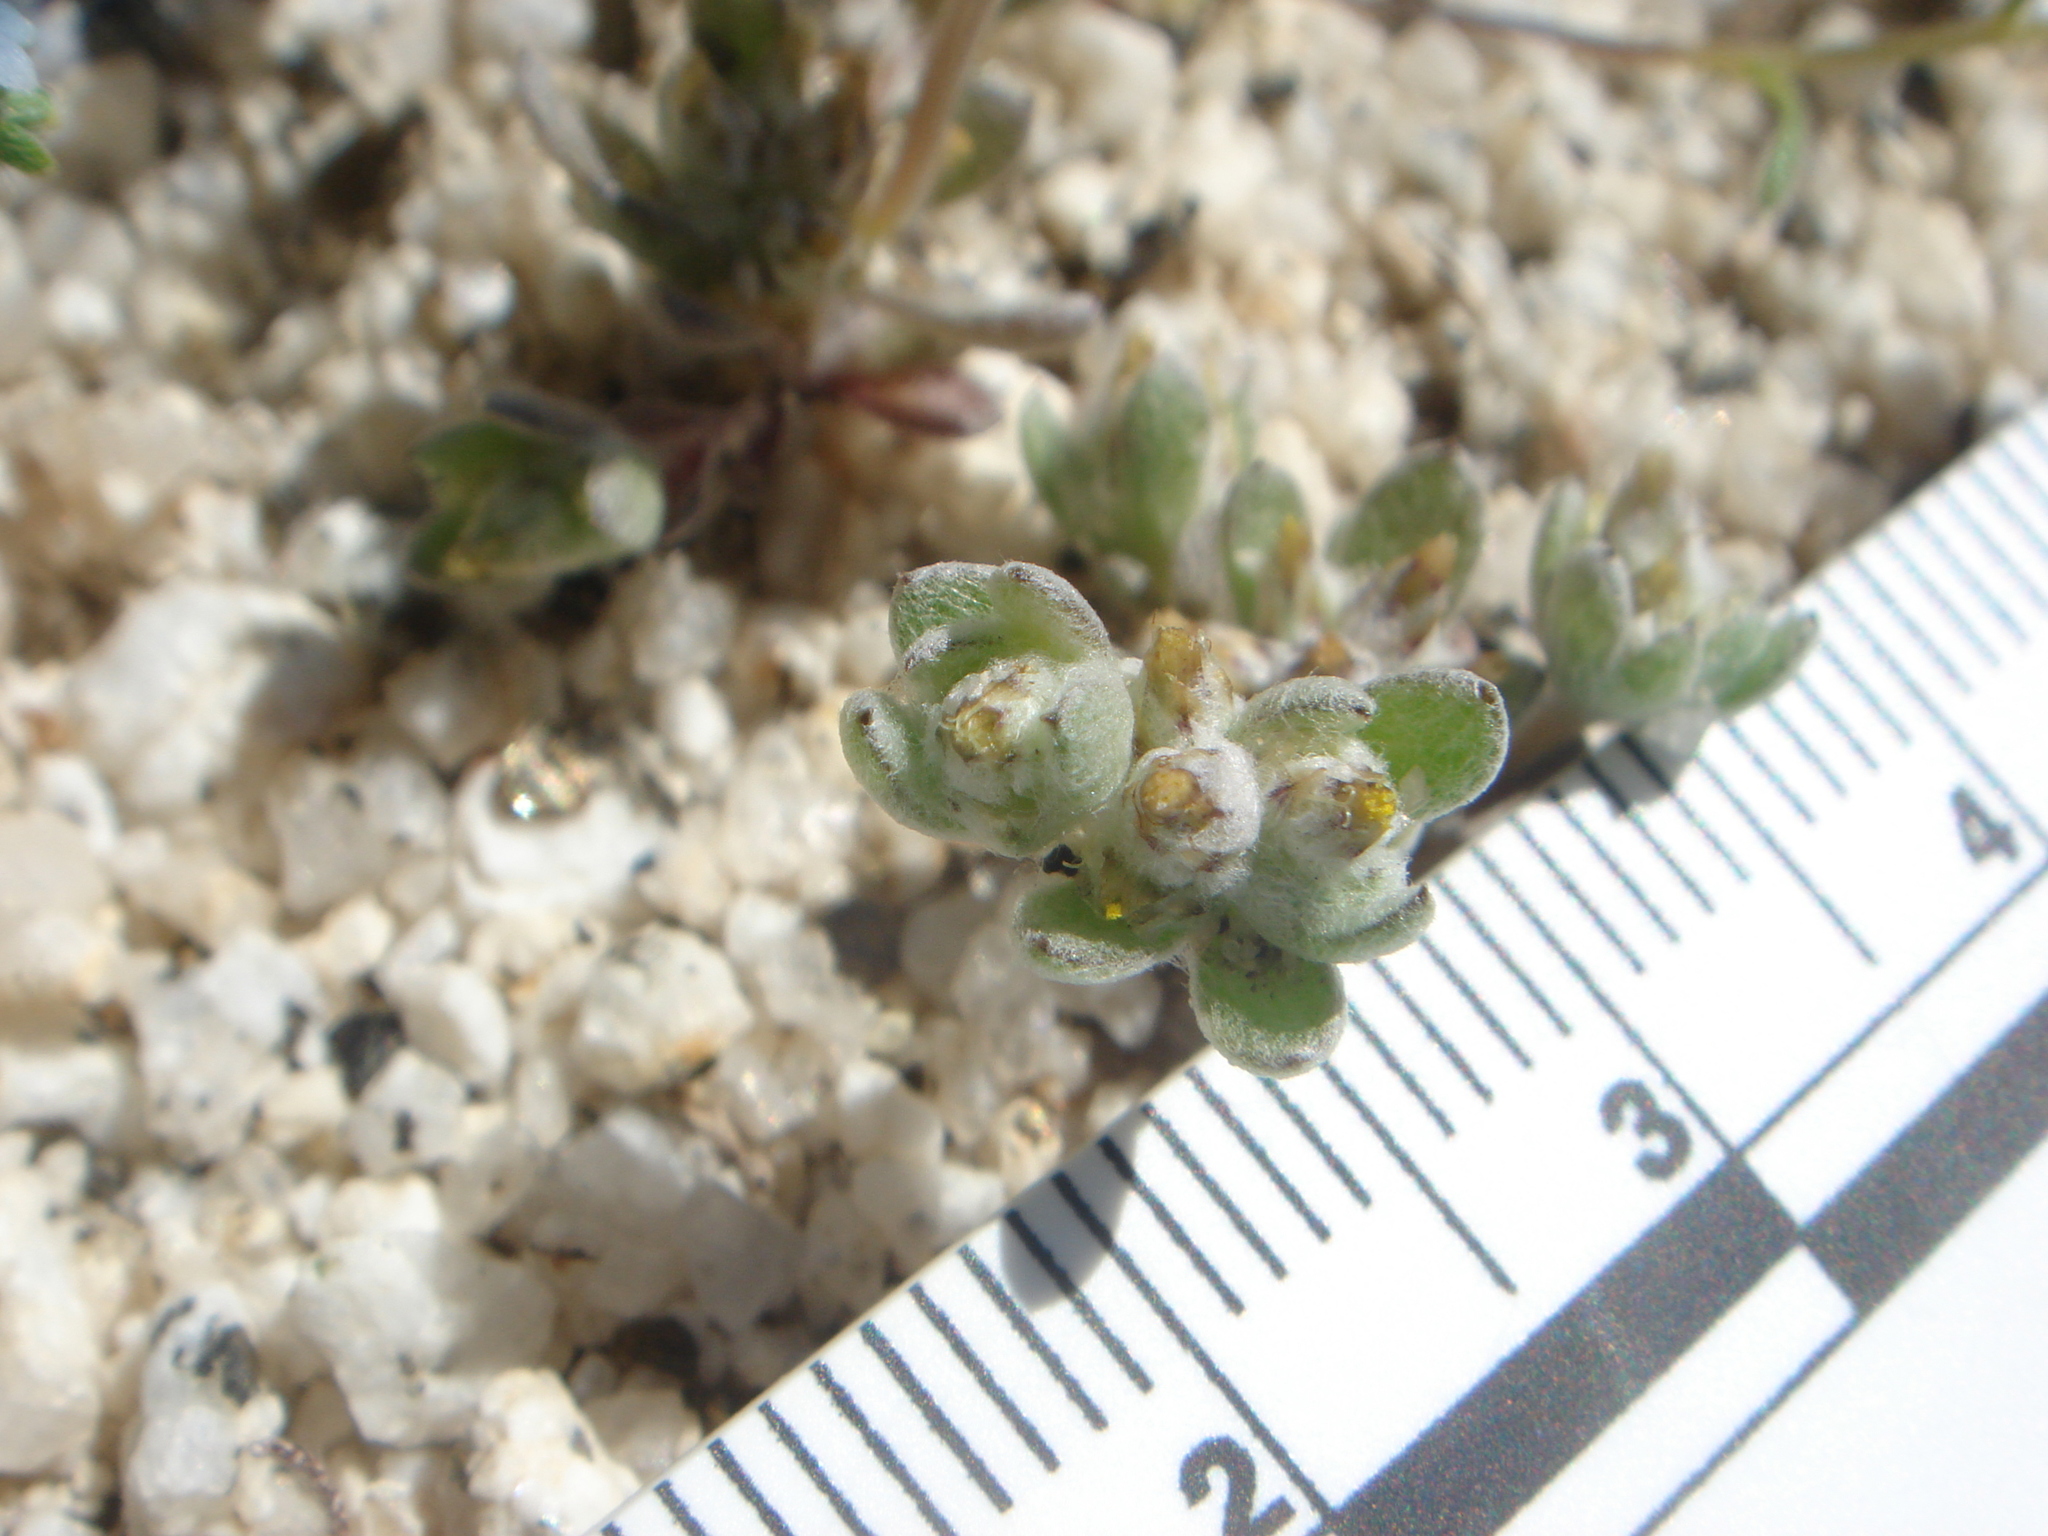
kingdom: Plantae
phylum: Tracheophyta
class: Magnoliopsida
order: Asterales
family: Asteraceae
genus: Logfia
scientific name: Logfia depressa
